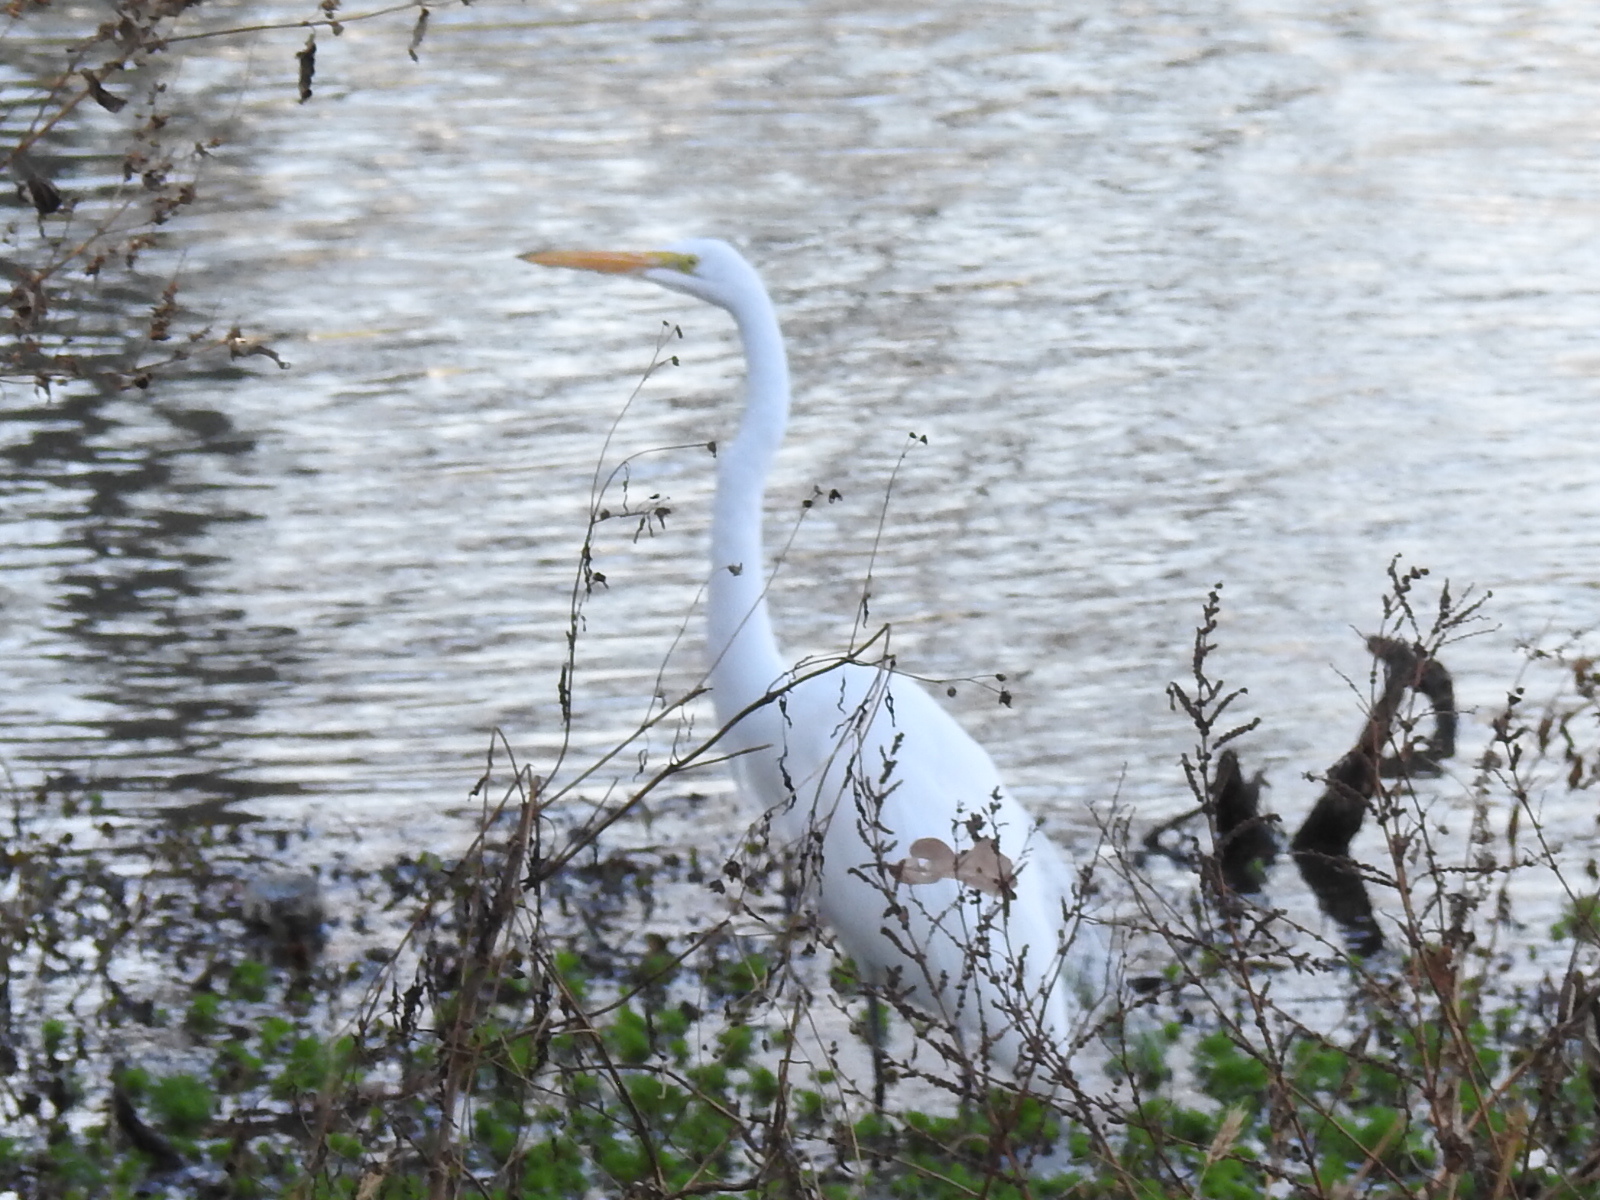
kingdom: Animalia
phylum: Chordata
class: Aves
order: Pelecaniformes
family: Ardeidae
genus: Ardea
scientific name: Ardea alba
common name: Great egret
